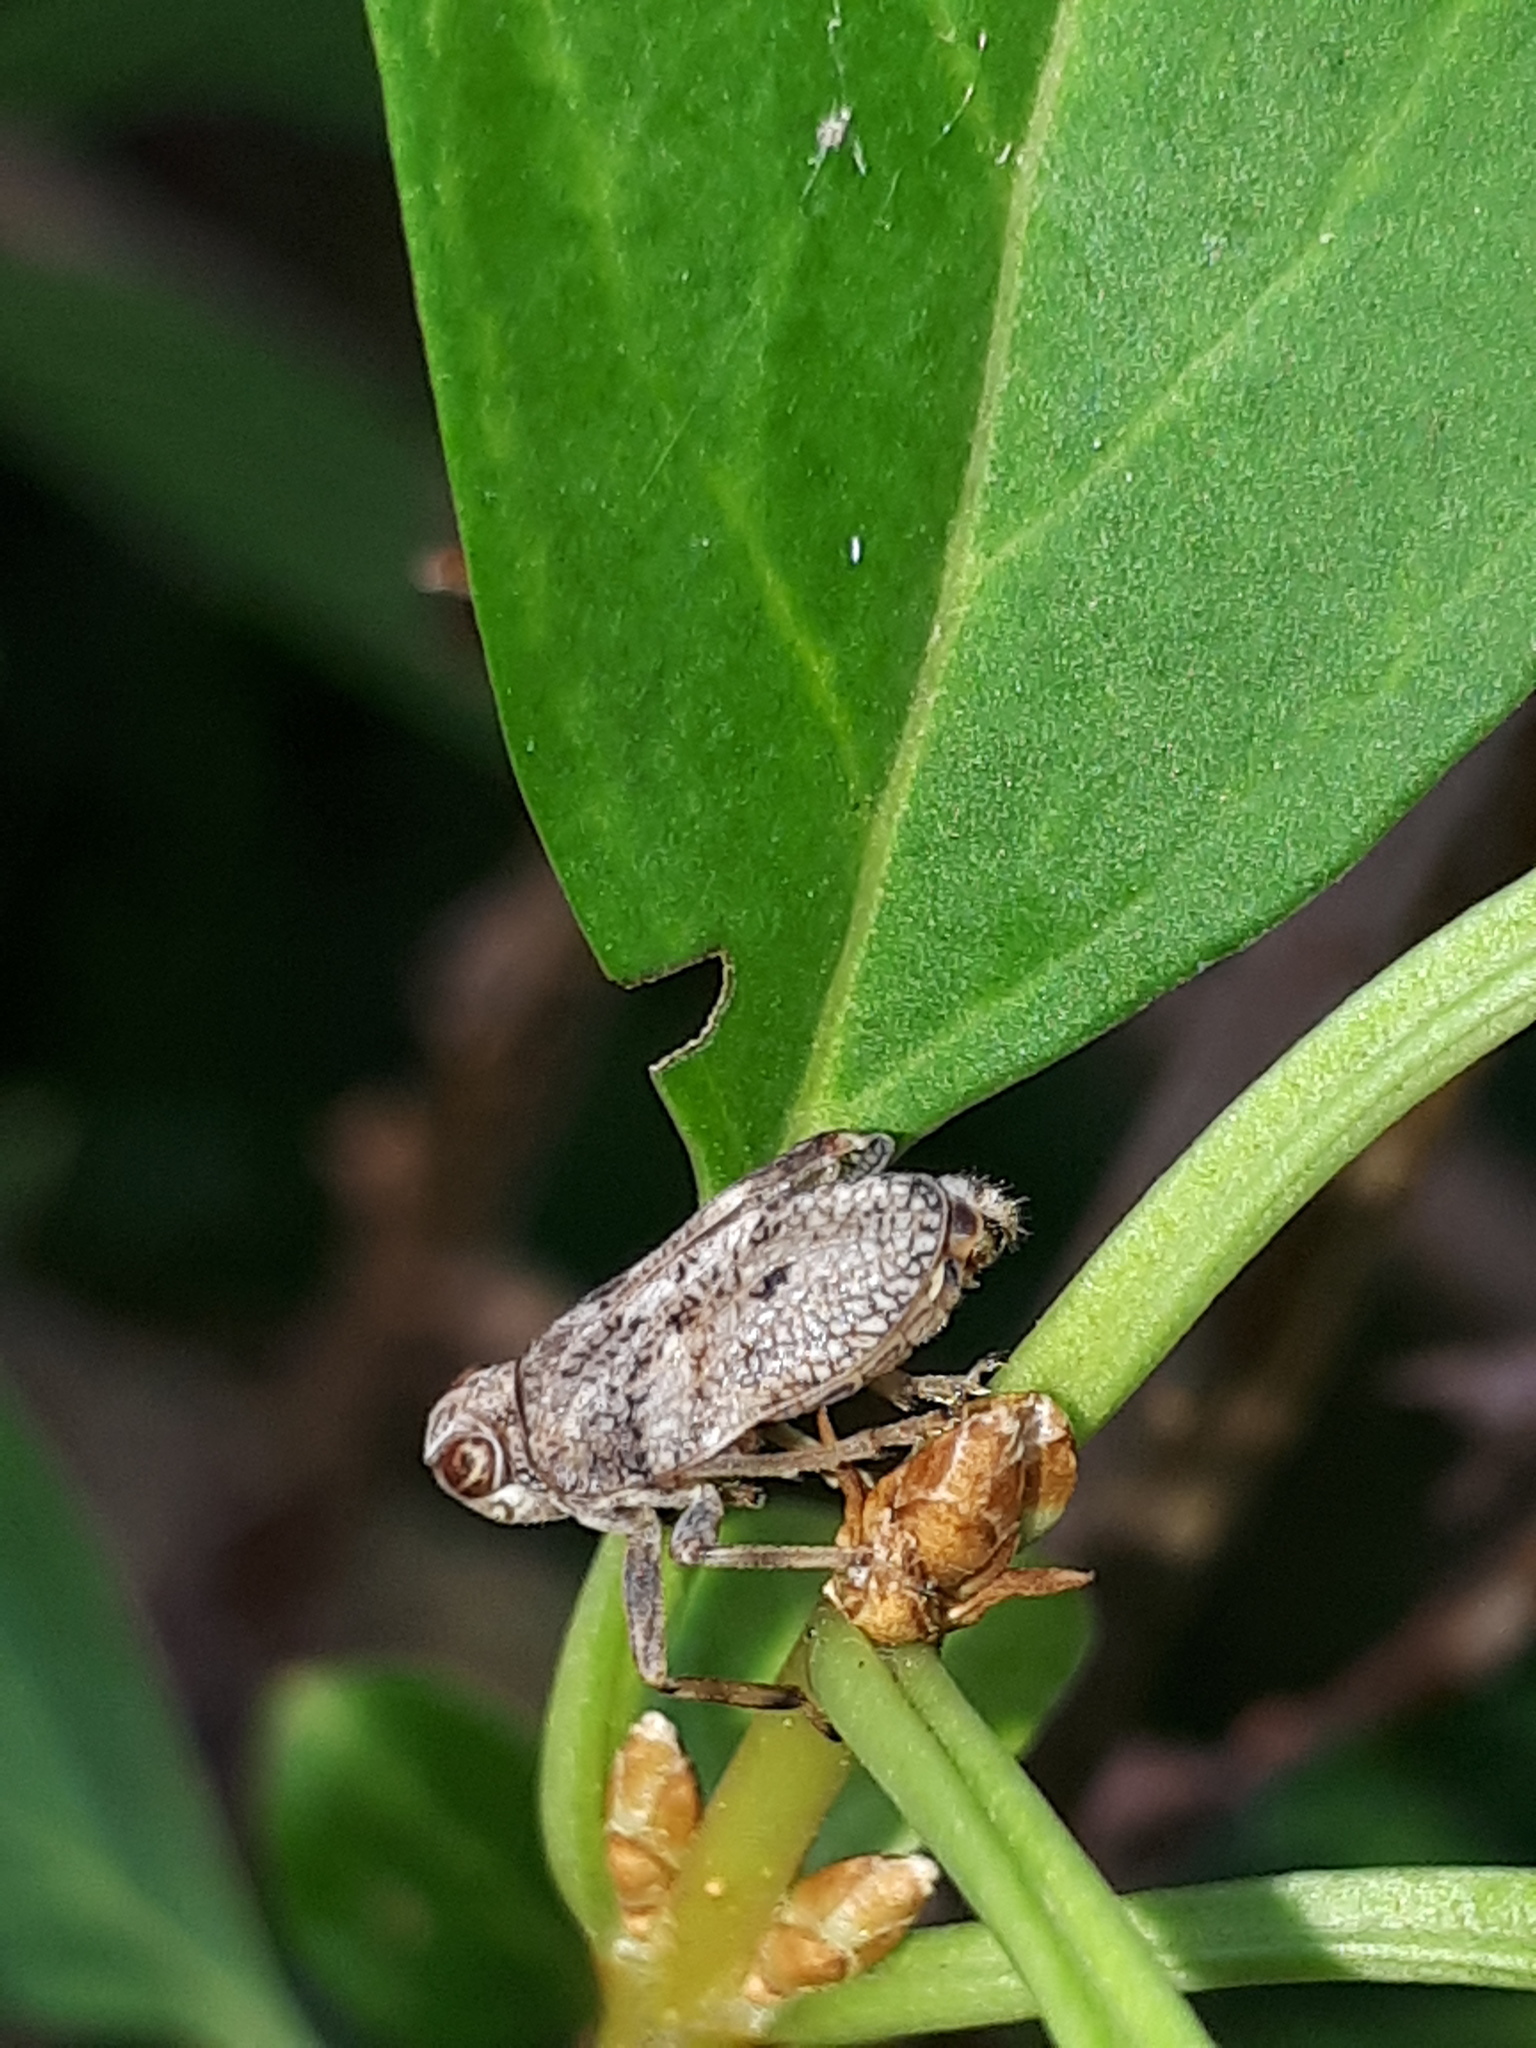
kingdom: Animalia
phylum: Arthropoda
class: Insecta
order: Hemiptera
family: Issidae
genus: Issus
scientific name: Issus coleoptratus
